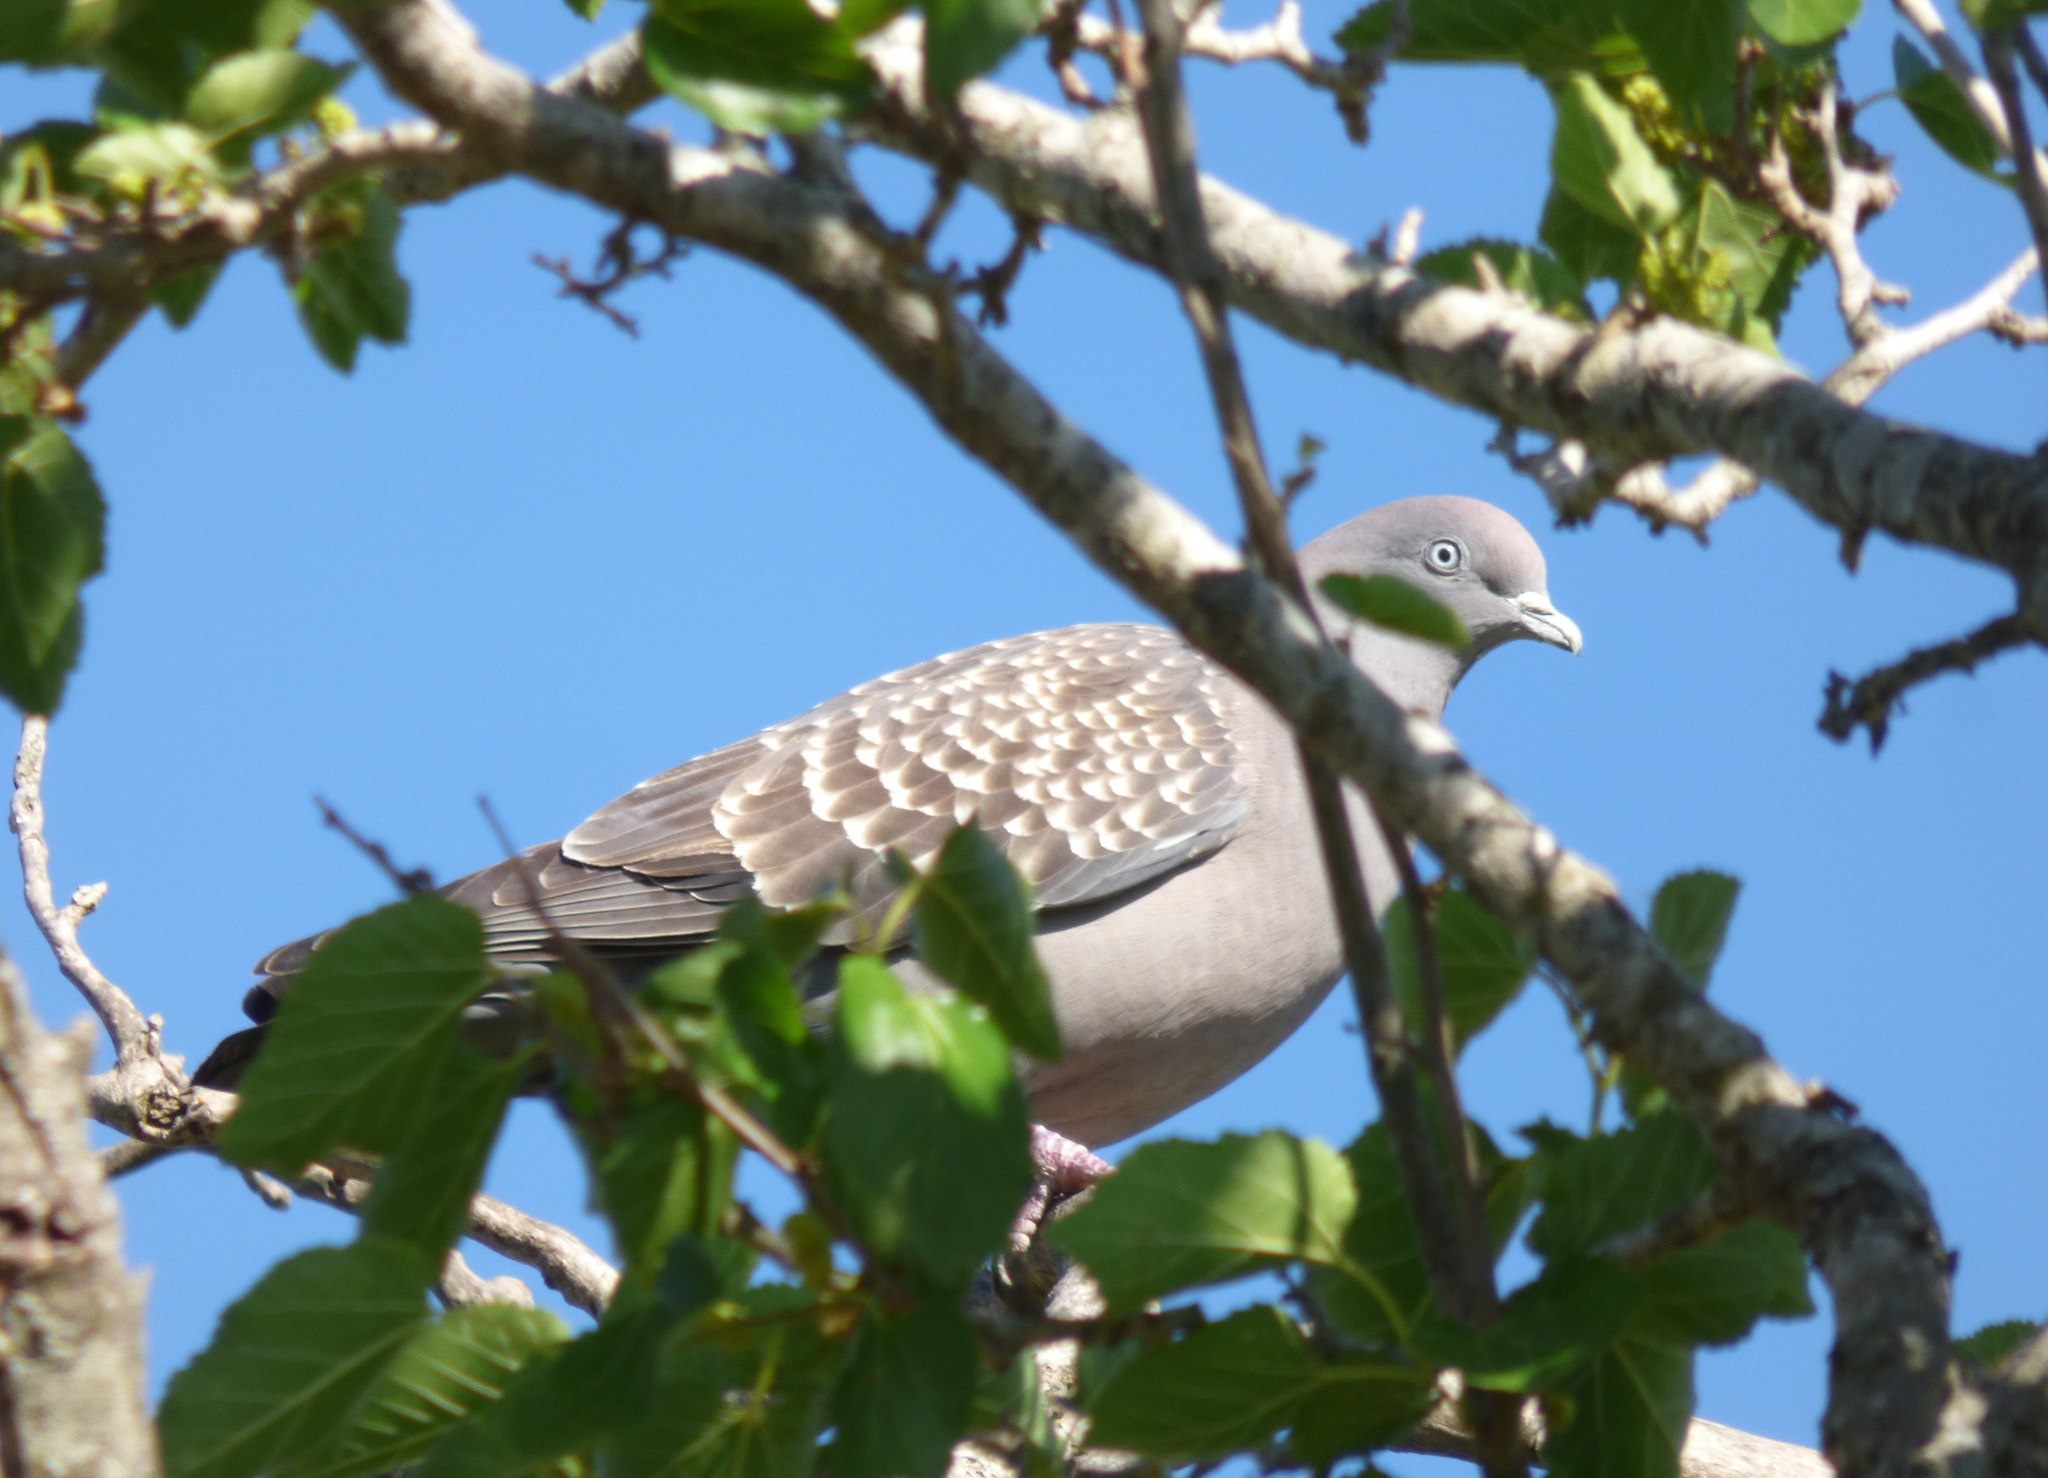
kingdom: Animalia
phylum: Chordata
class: Aves
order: Columbiformes
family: Columbidae
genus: Patagioenas
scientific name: Patagioenas maculosa
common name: Spot-winged pigeon
